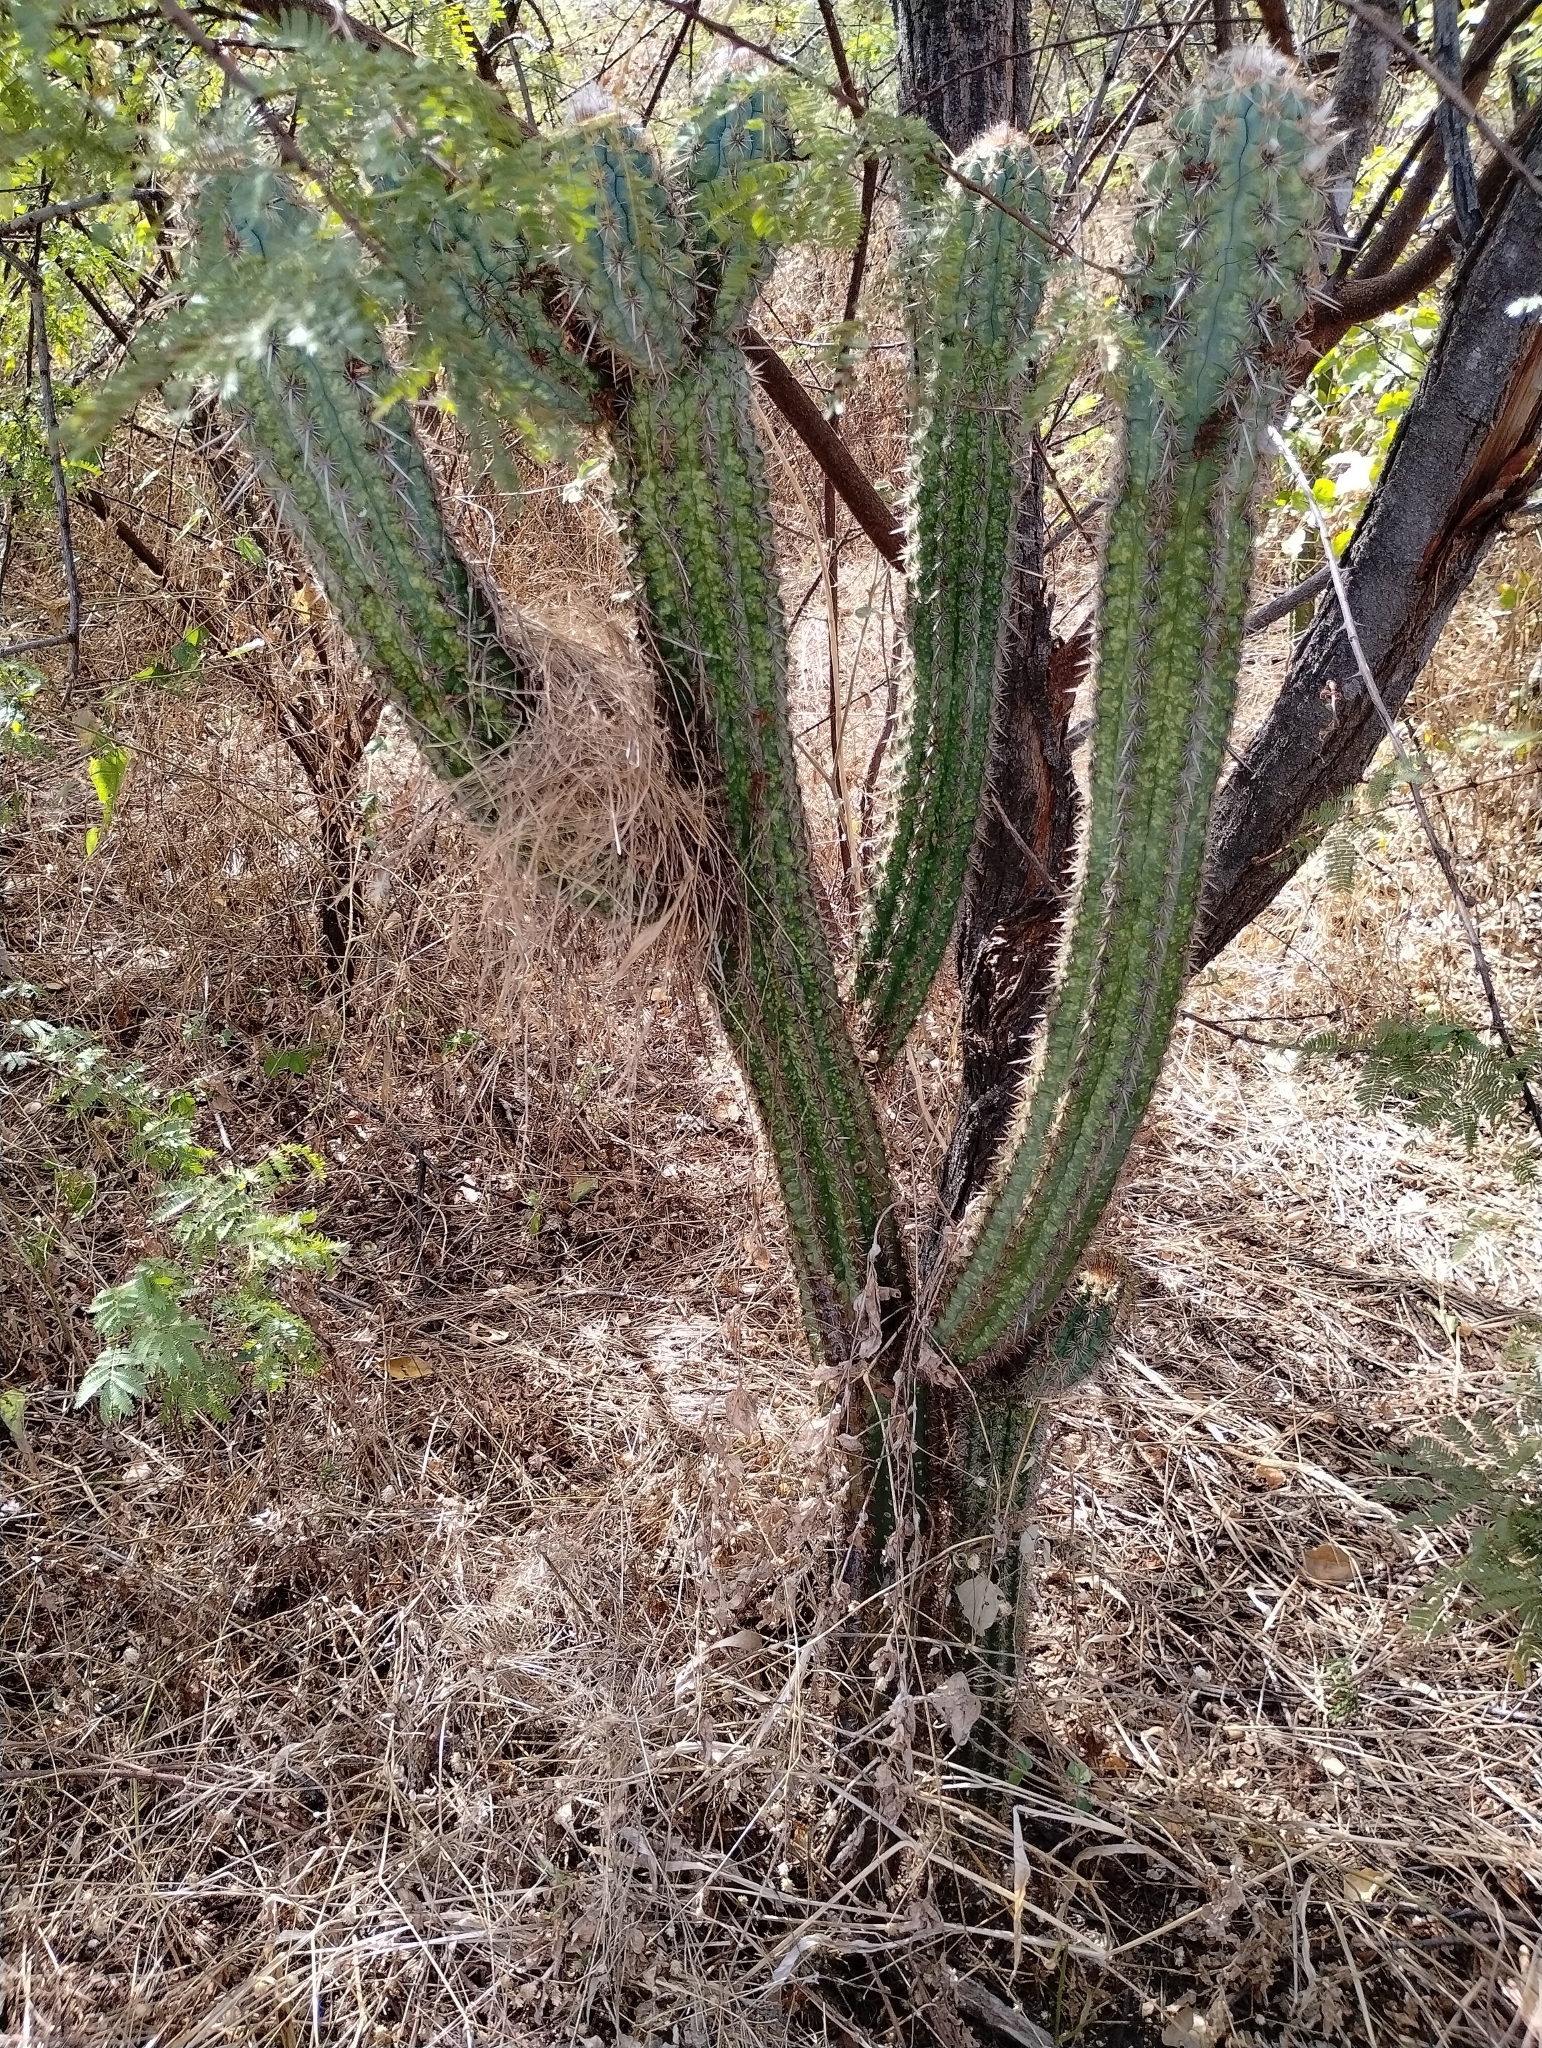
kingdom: Plantae
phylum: Tracheophyta
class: Magnoliopsida
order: Caryophyllales
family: Cactaceae
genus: Xiquexique
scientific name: Xiquexique gounellei
